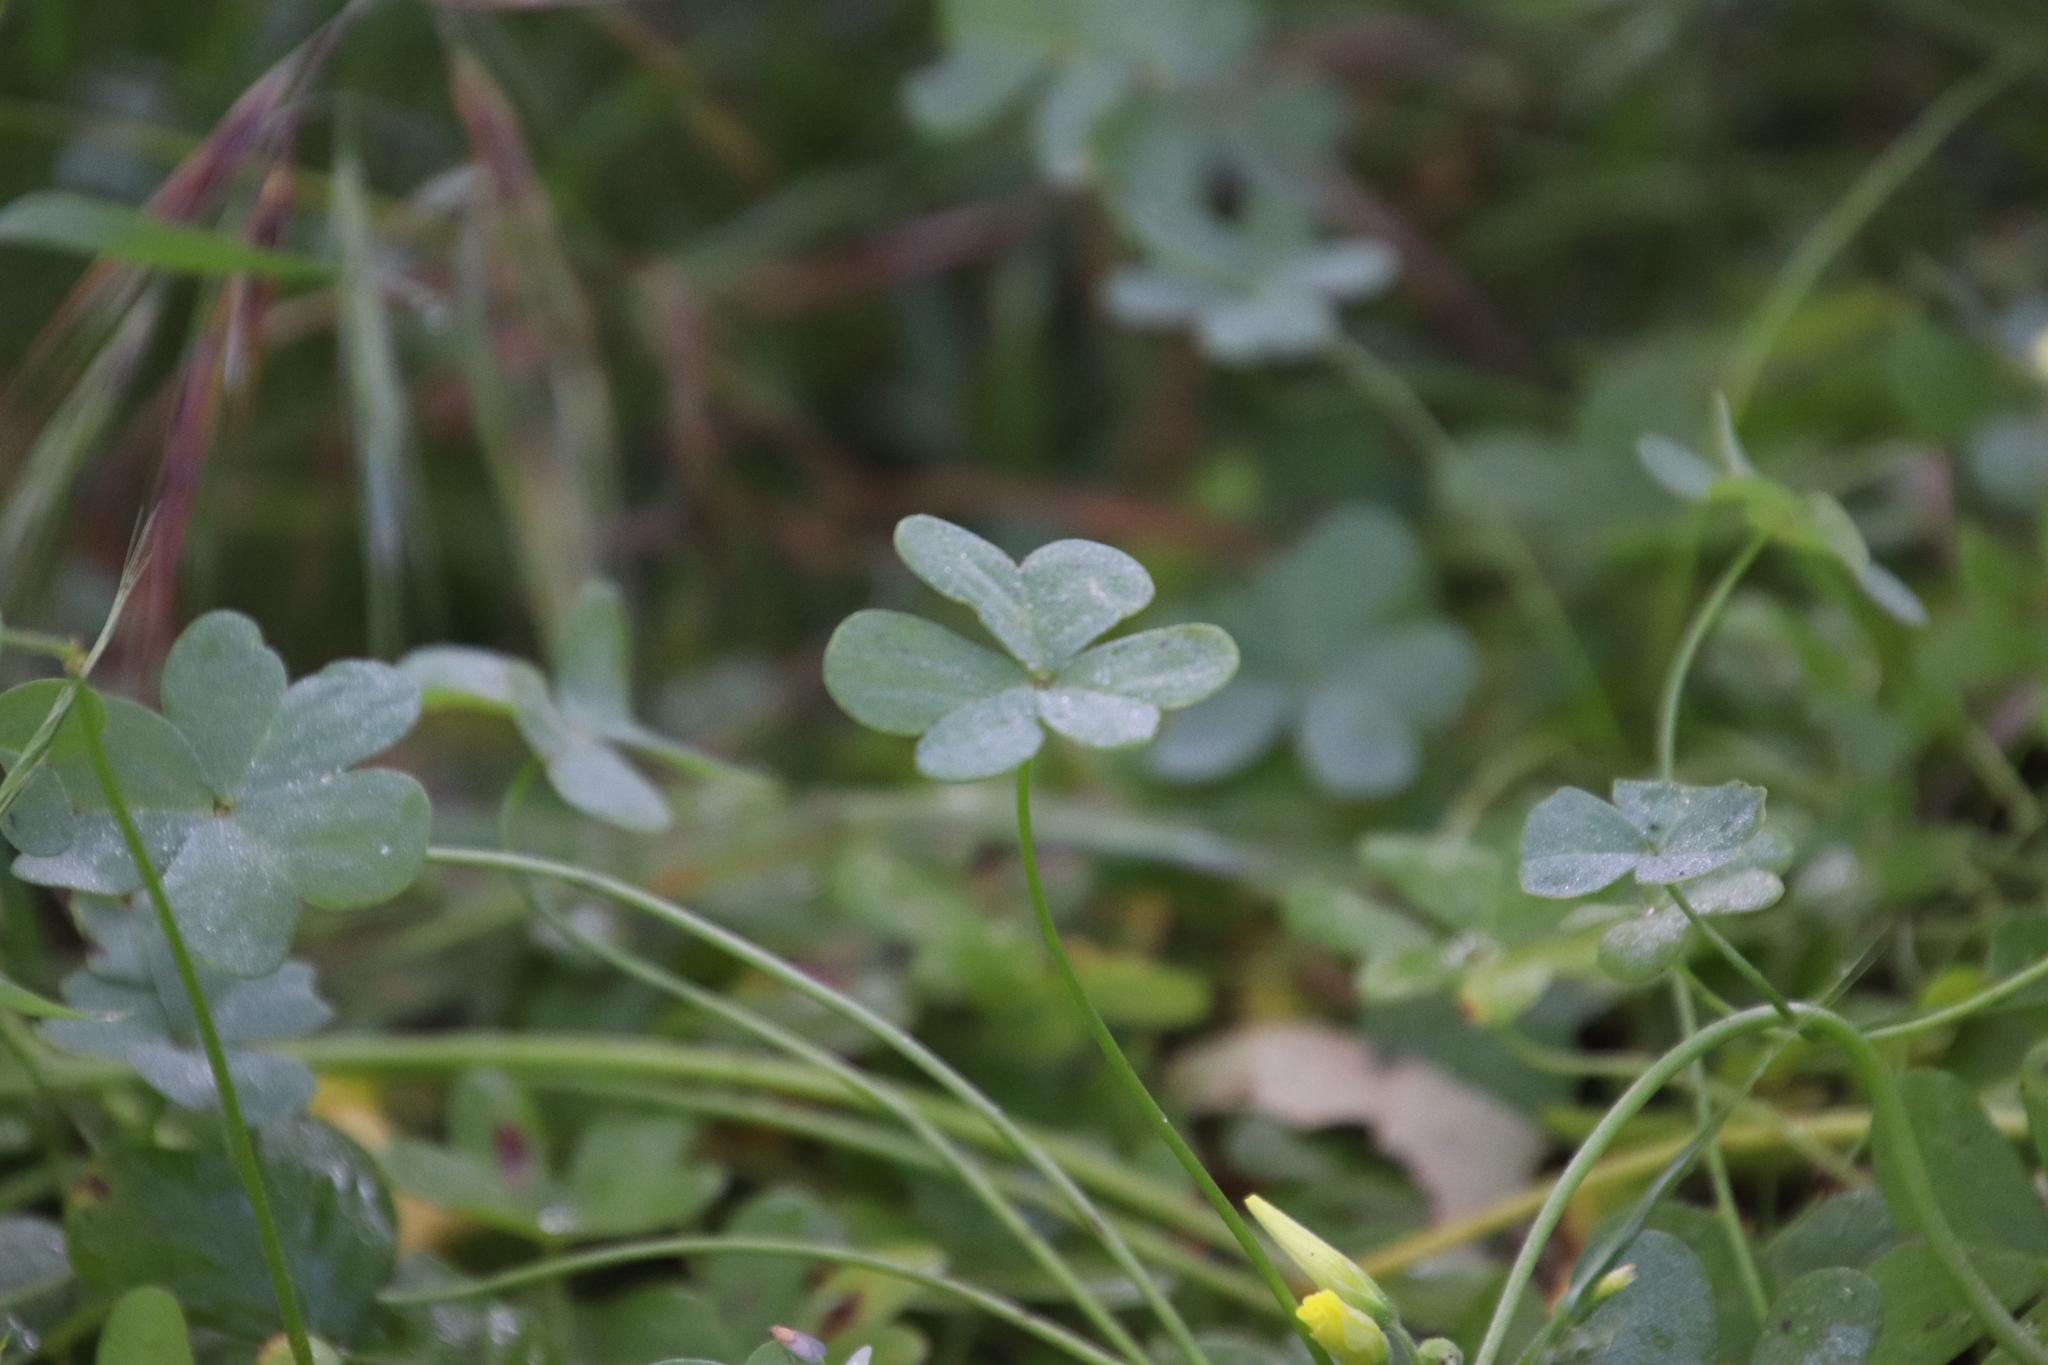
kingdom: Plantae
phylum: Tracheophyta
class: Magnoliopsida
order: Oxalidales
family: Oxalidaceae
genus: Oxalis
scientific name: Oxalis pes-caprae
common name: Bermuda-buttercup
